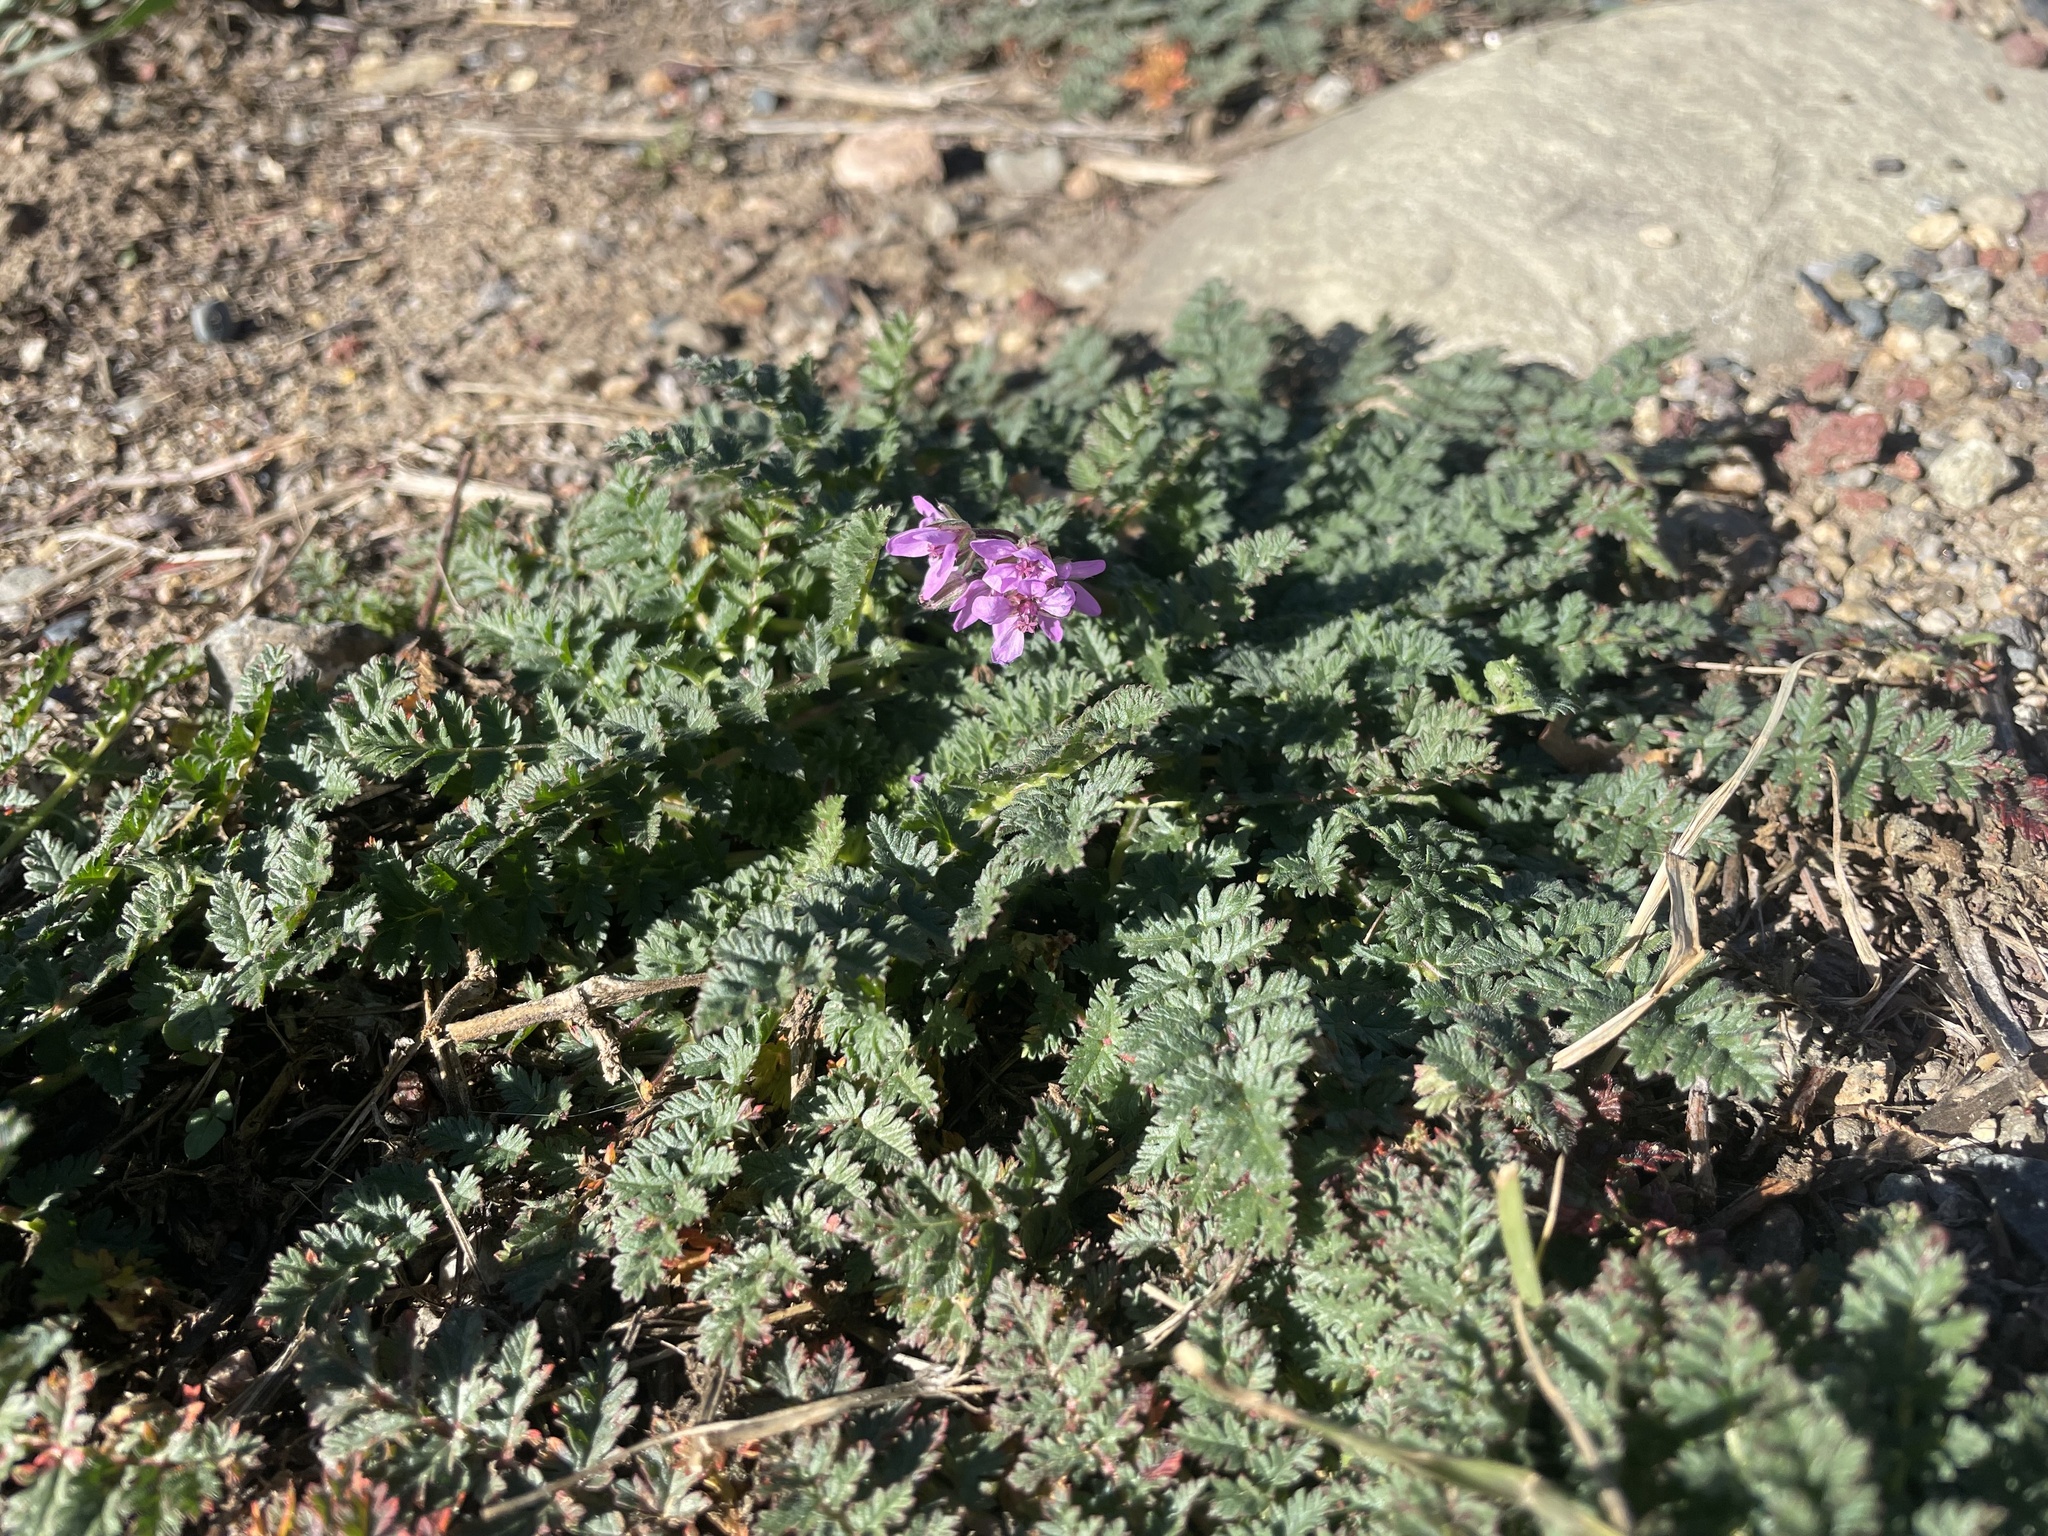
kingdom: Plantae
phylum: Tracheophyta
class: Magnoliopsida
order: Geraniales
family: Geraniaceae
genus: Erodium
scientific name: Erodium cicutarium
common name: Common stork's-bill
